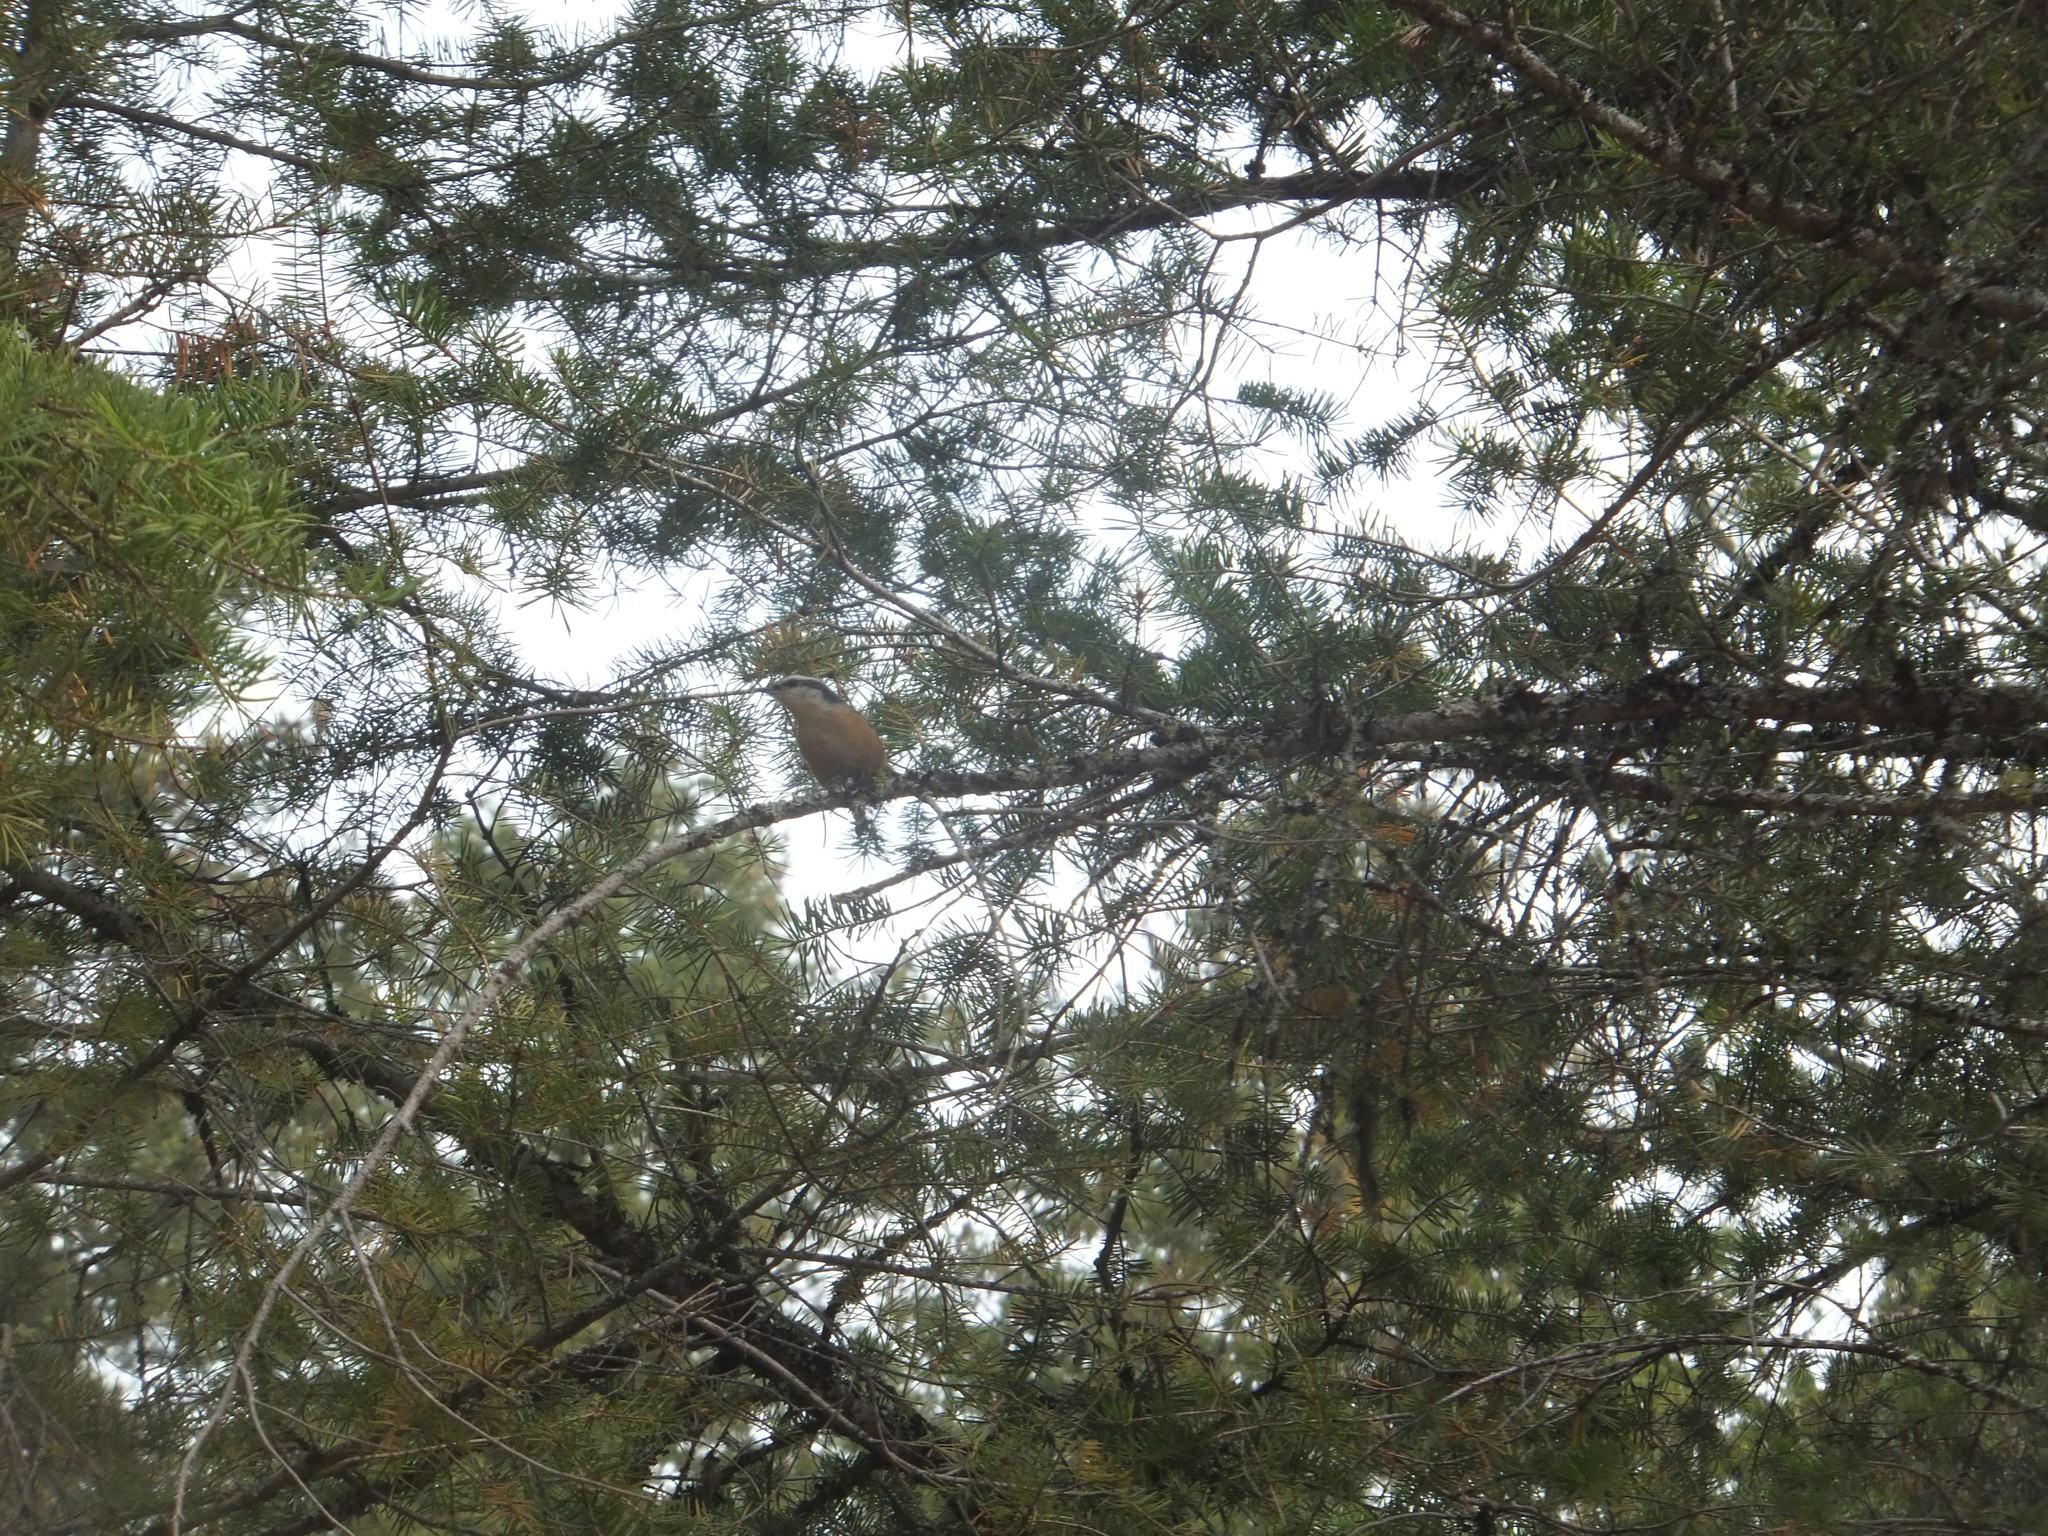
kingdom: Animalia
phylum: Chordata
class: Aves
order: Passeriformes
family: Sittidae
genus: Sitta
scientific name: Sitta canadensis
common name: Red-breasted nuthatch
